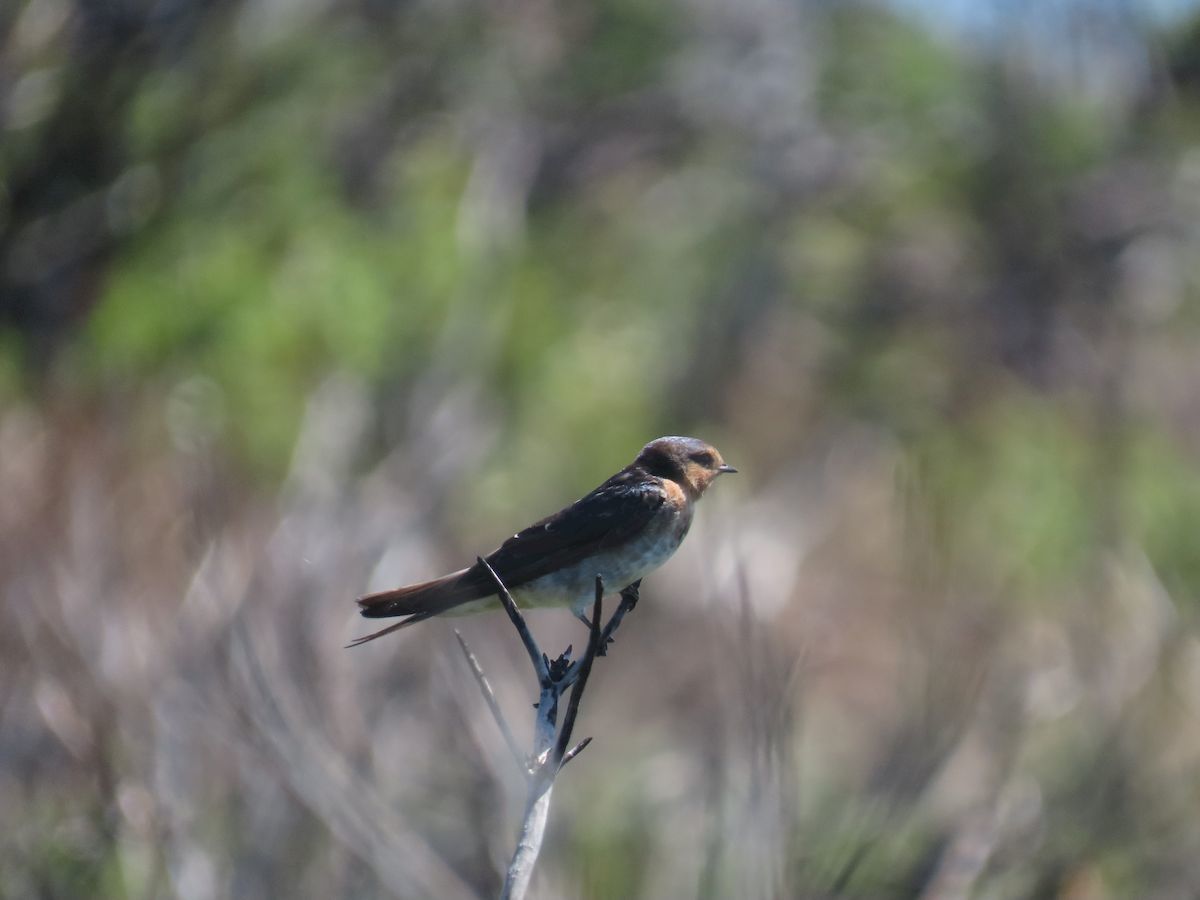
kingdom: Animalia
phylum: Chordata
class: Aves
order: Passeriformes
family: Hirundinidae
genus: Hirundo
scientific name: Hirundo neoxena
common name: Welcome swallow
